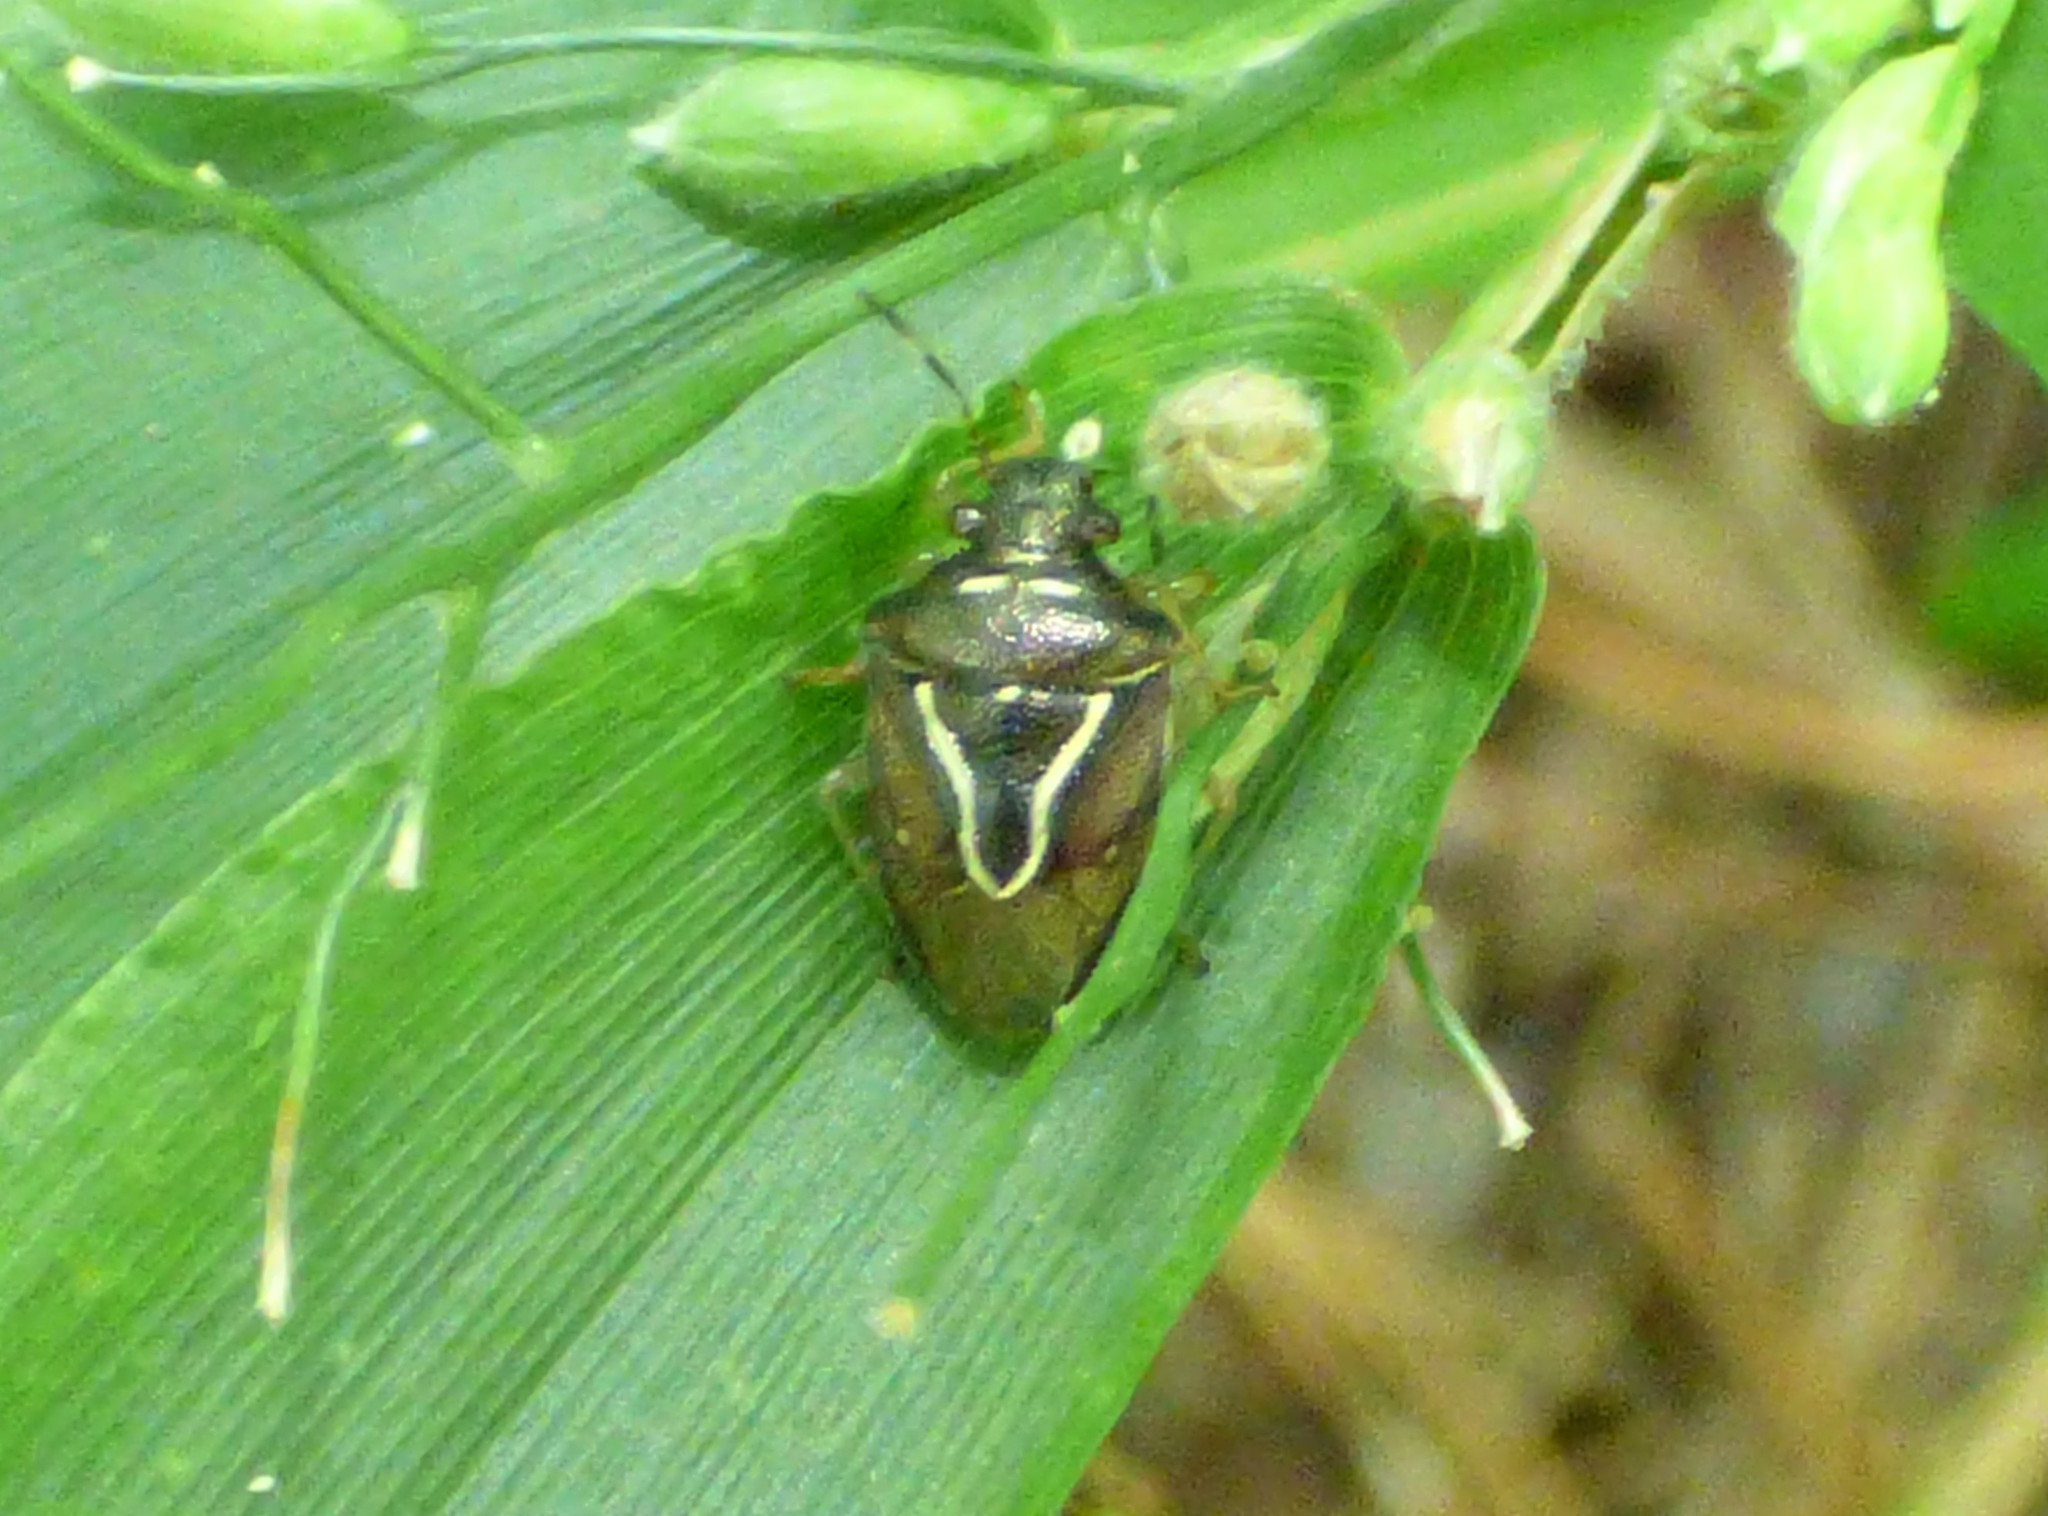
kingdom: Animalia
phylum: Arthropoda
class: Insecta
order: Hemiptera
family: Pentatomidae
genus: Mormidea
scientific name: Mormidea lugens
